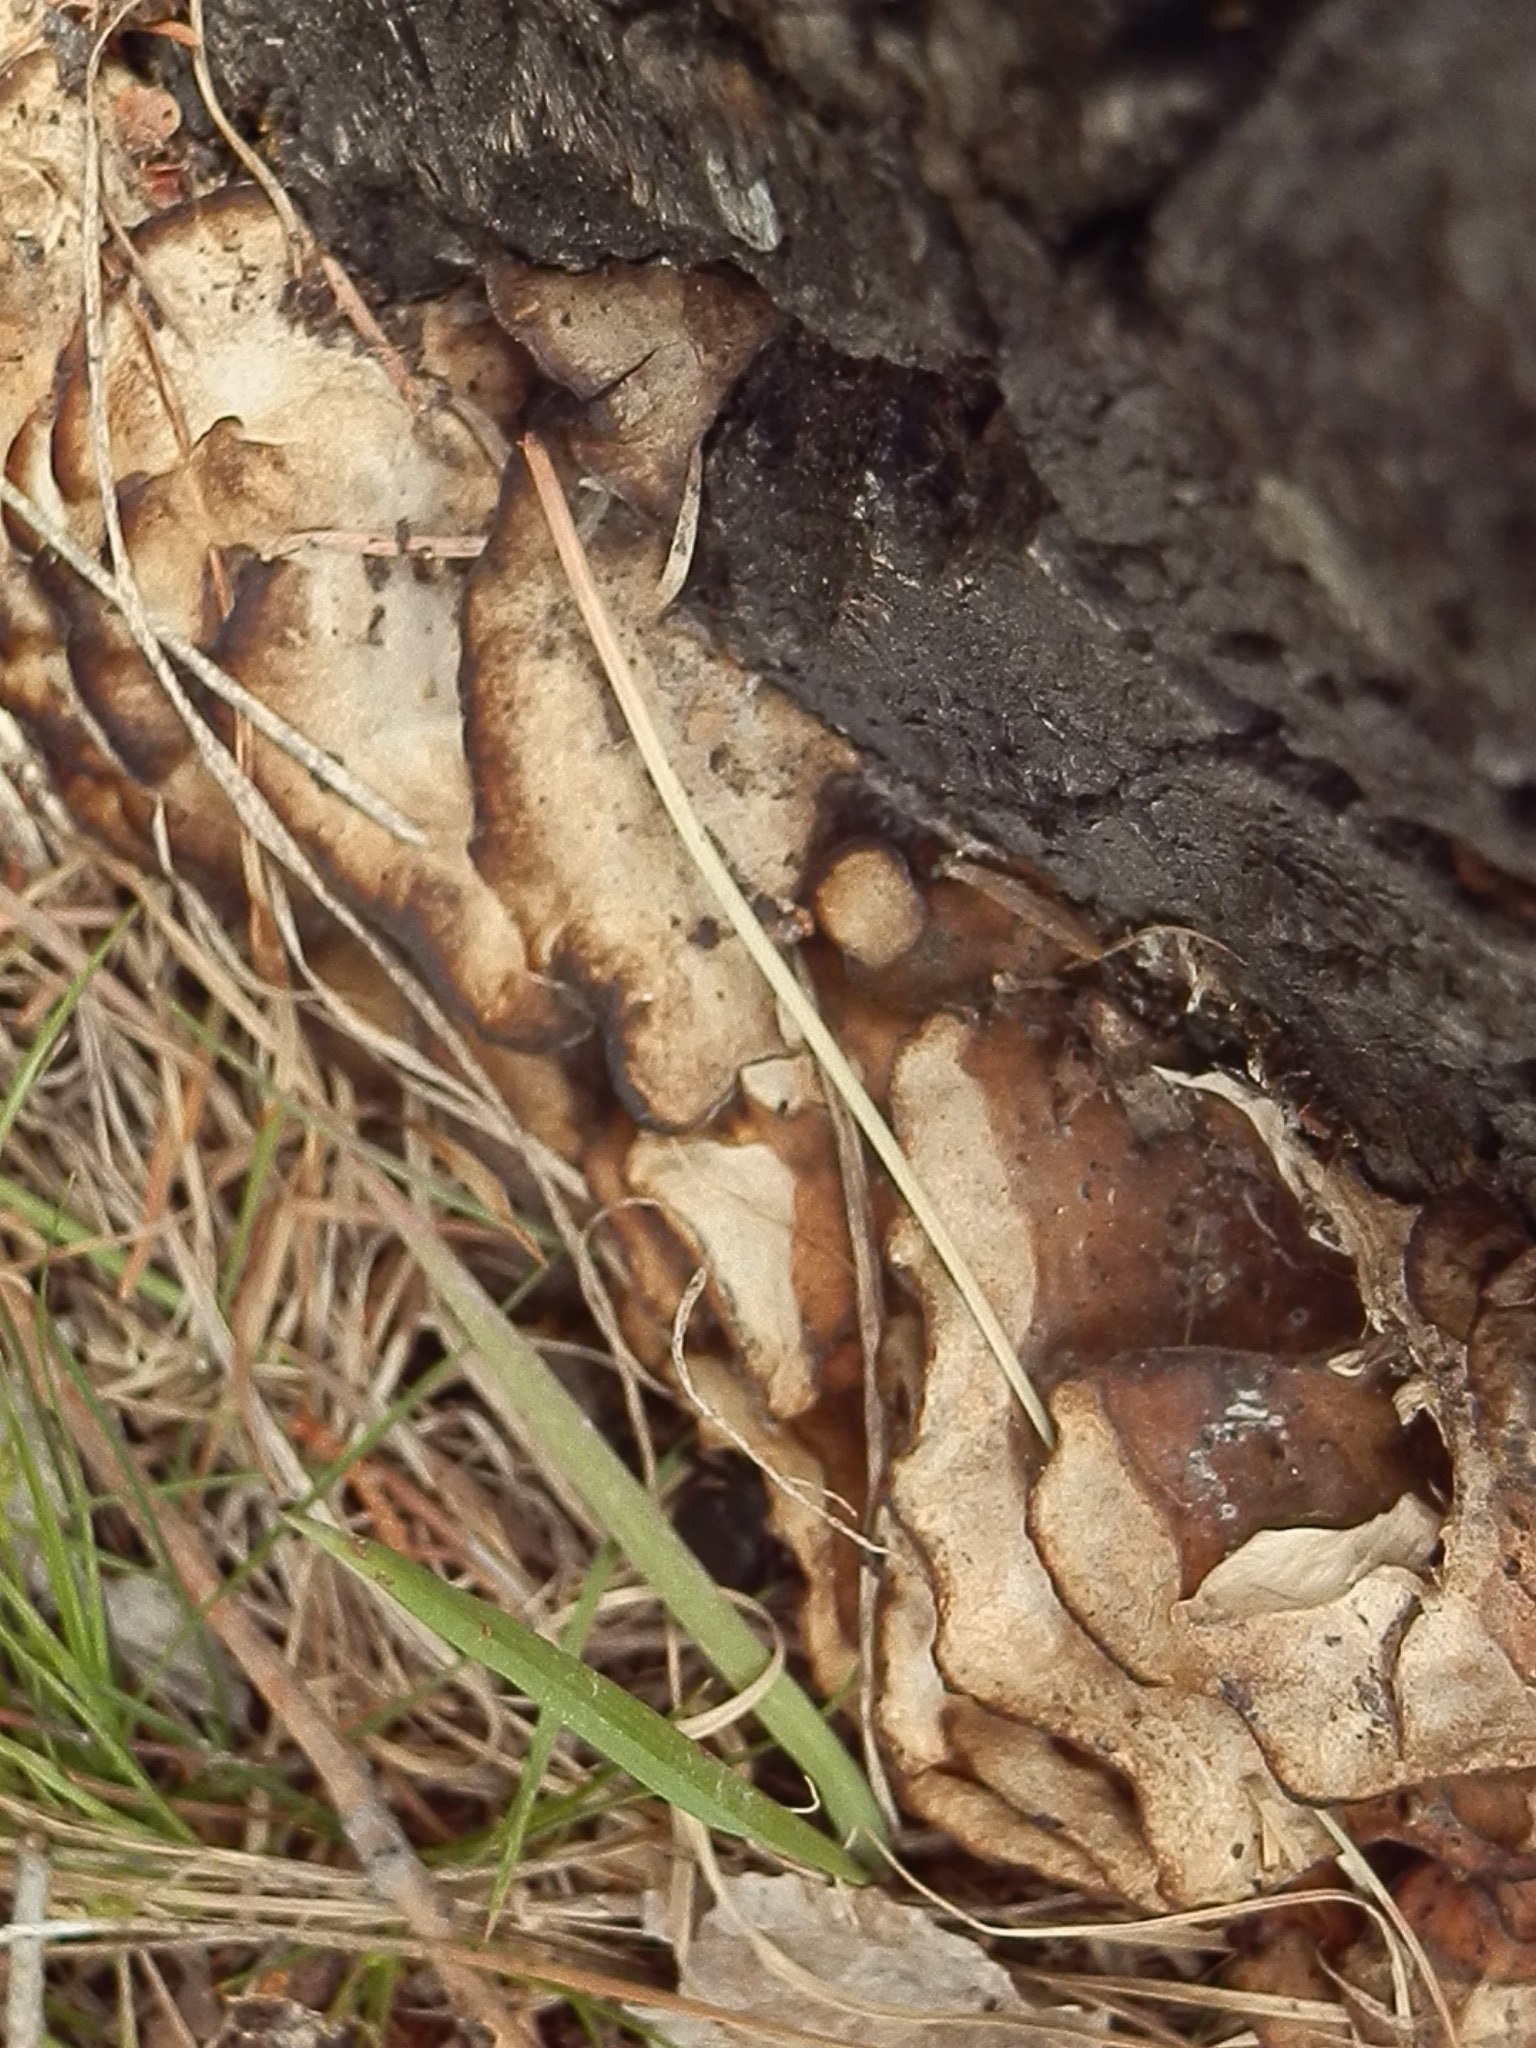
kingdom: Fungi
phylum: Basidiomycota
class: Agaricomycetes
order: Polyporales
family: Phanerochaetaceae
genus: Bjerkandera
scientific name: Bjerkandera adusta
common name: Smoky bracket
